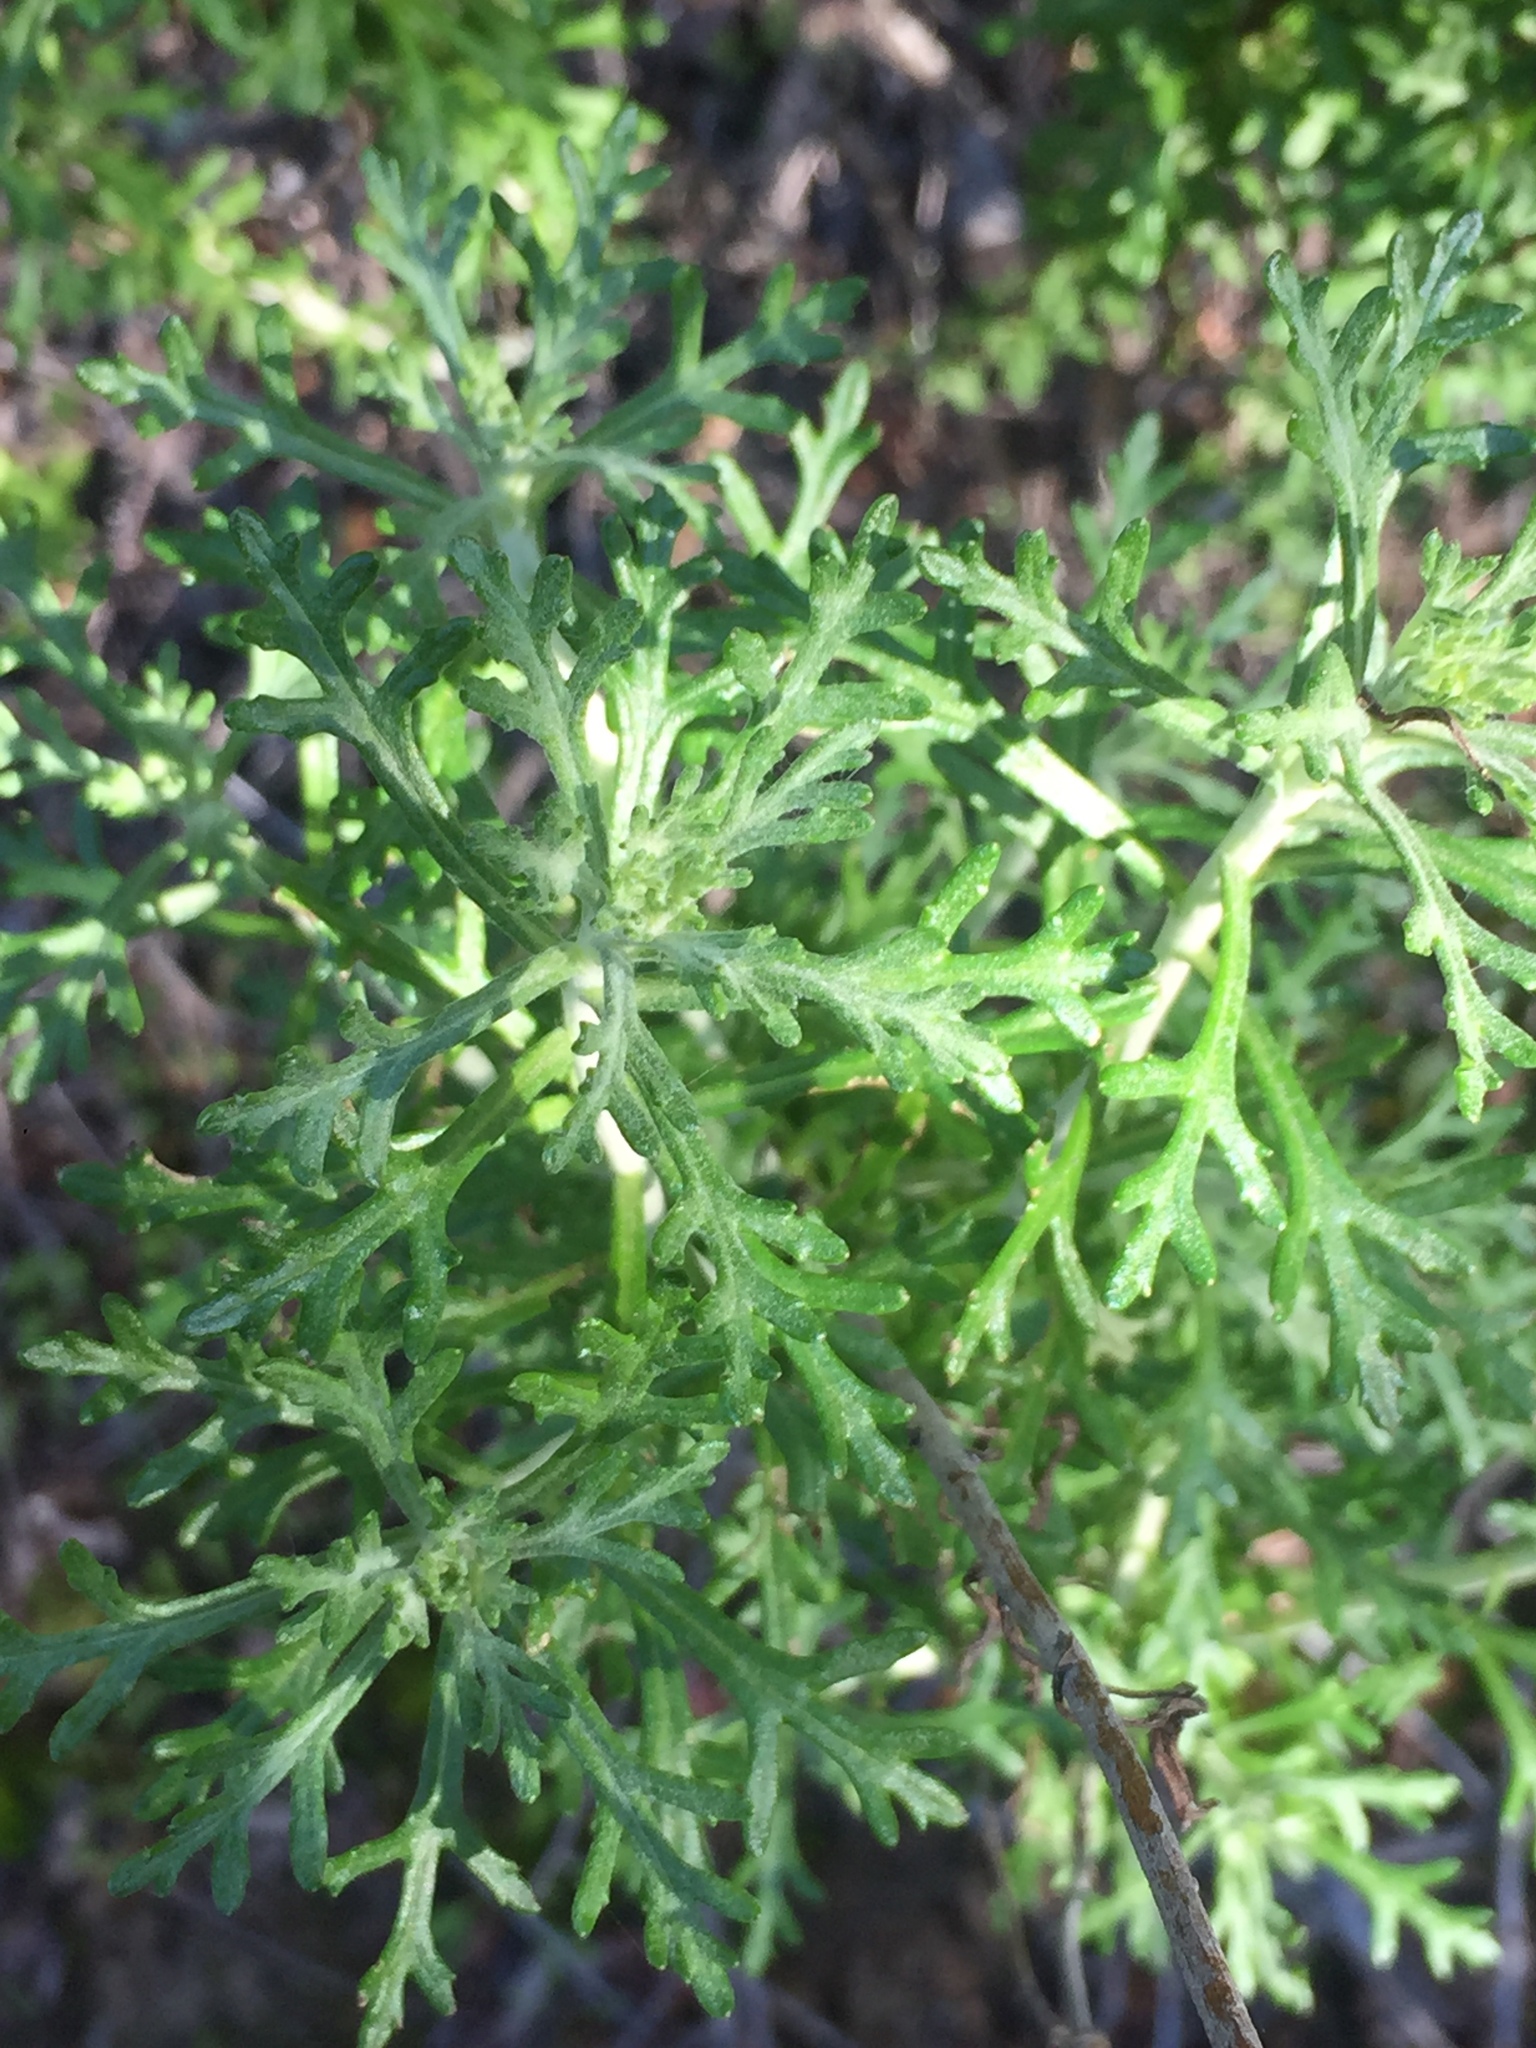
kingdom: Plantae
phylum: Tracheophyta
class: Magnoliopsida
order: Asterales
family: Asteraceae
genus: Eriophyllum
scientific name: Eriophyllum confertiflorum
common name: Golden-yarrow
